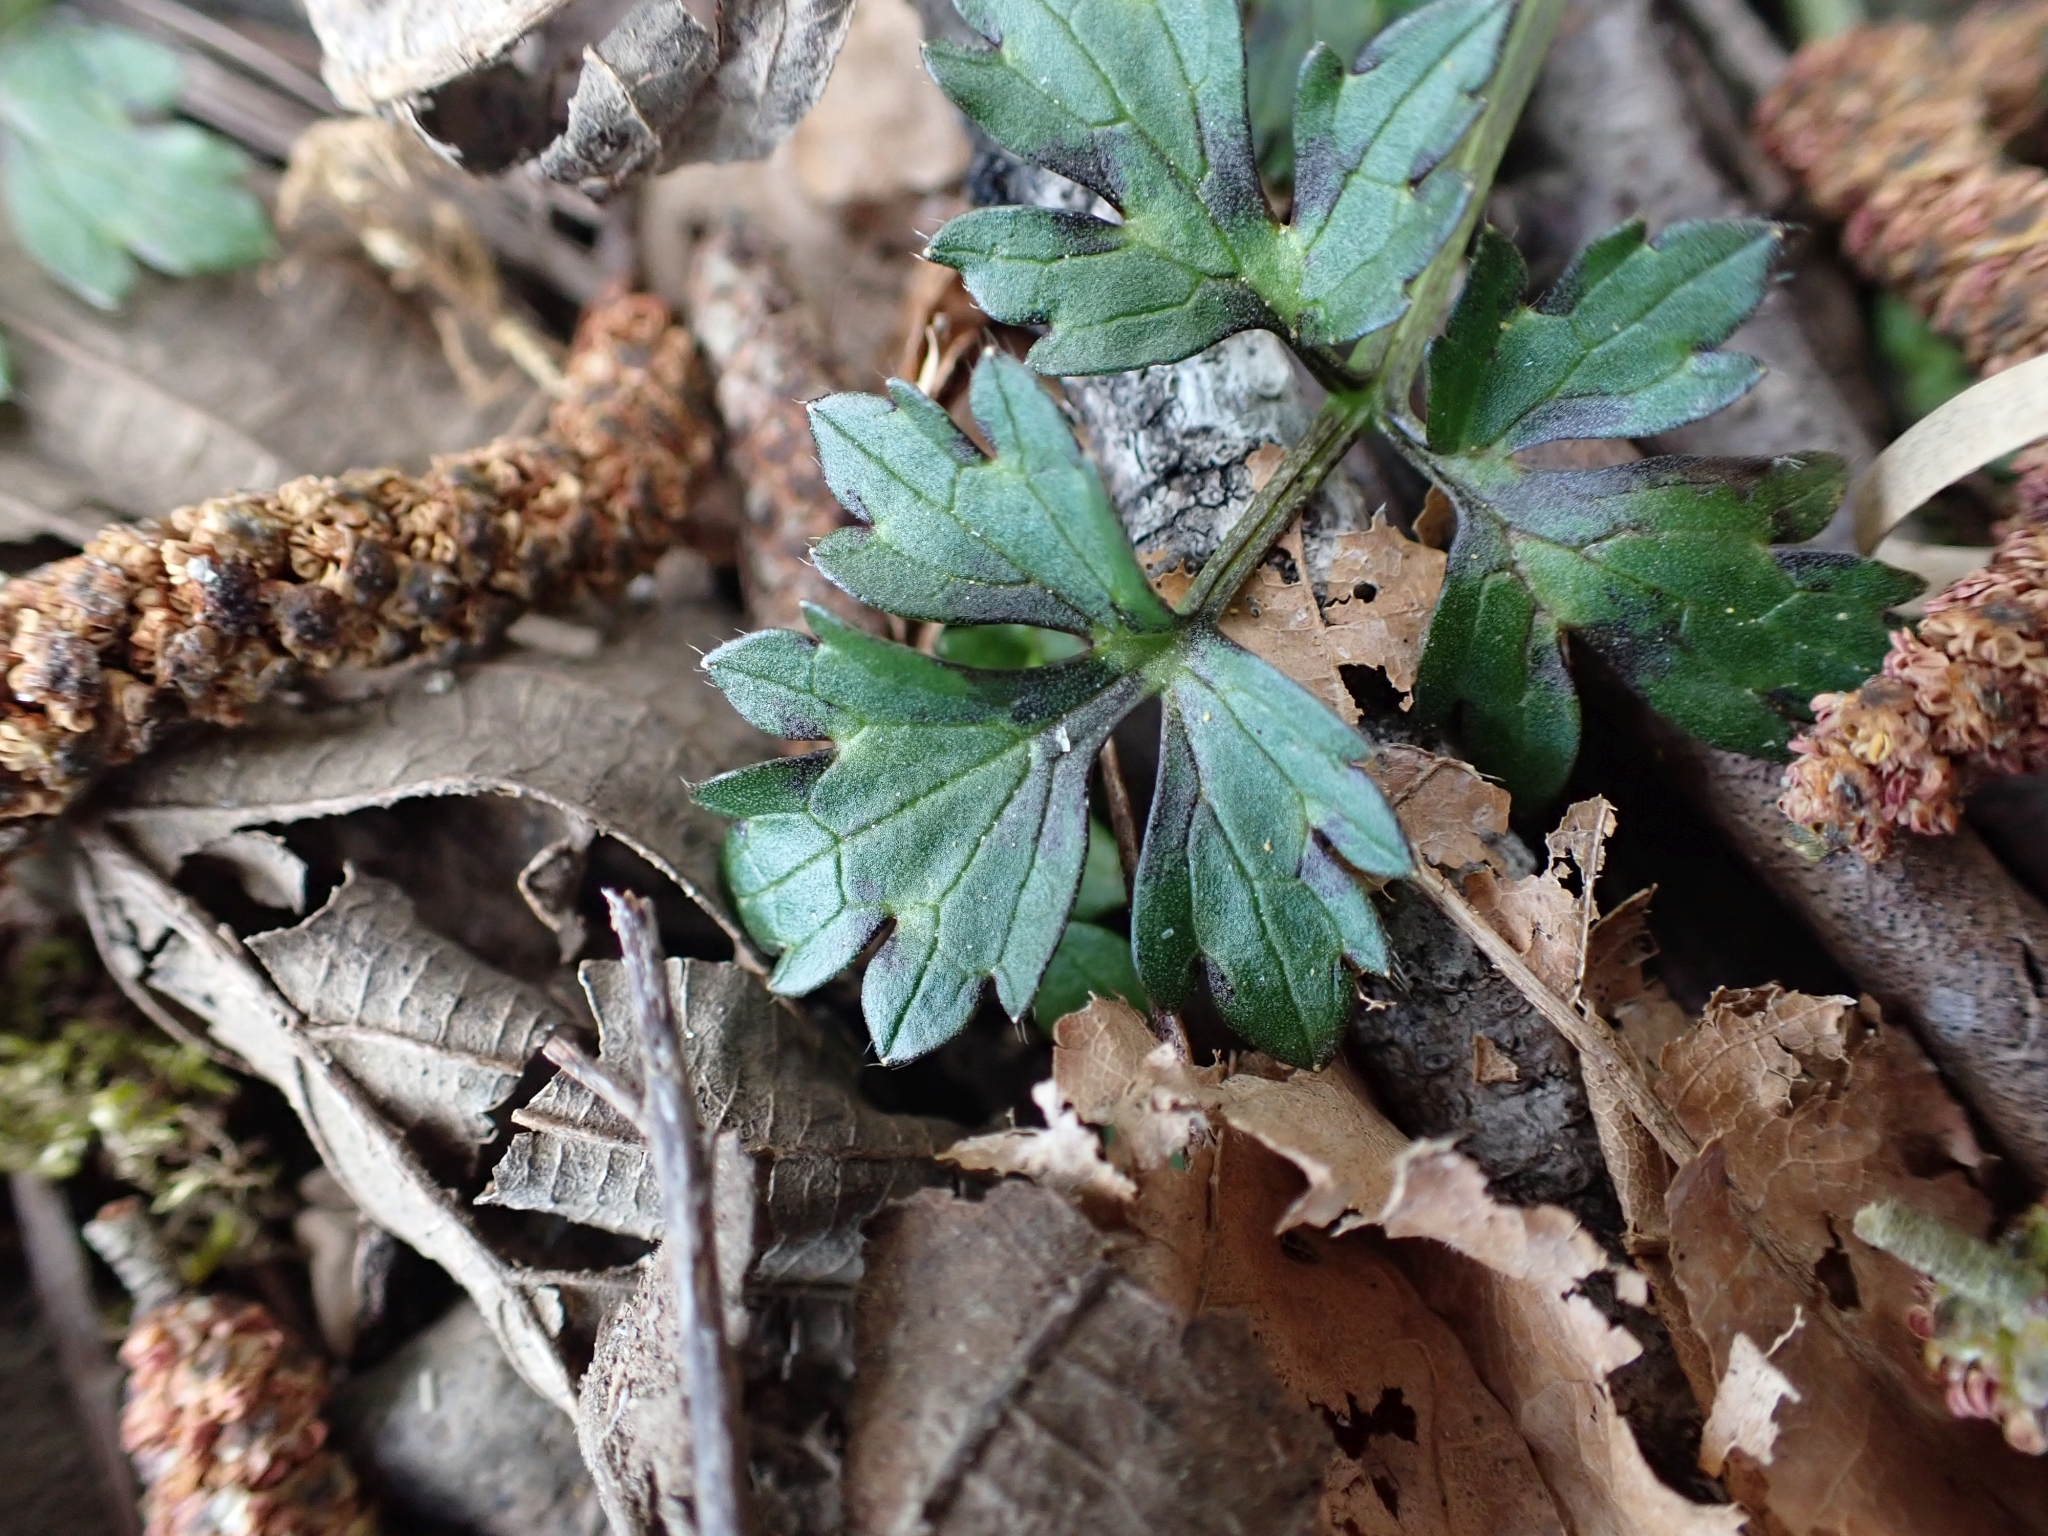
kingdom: Plantae
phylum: Tracheophyta
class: Magnoliopsida
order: Ranunculales
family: Ranunculaceae
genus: Ranunculus
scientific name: Ranunculus repens
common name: Creeping buttercup
